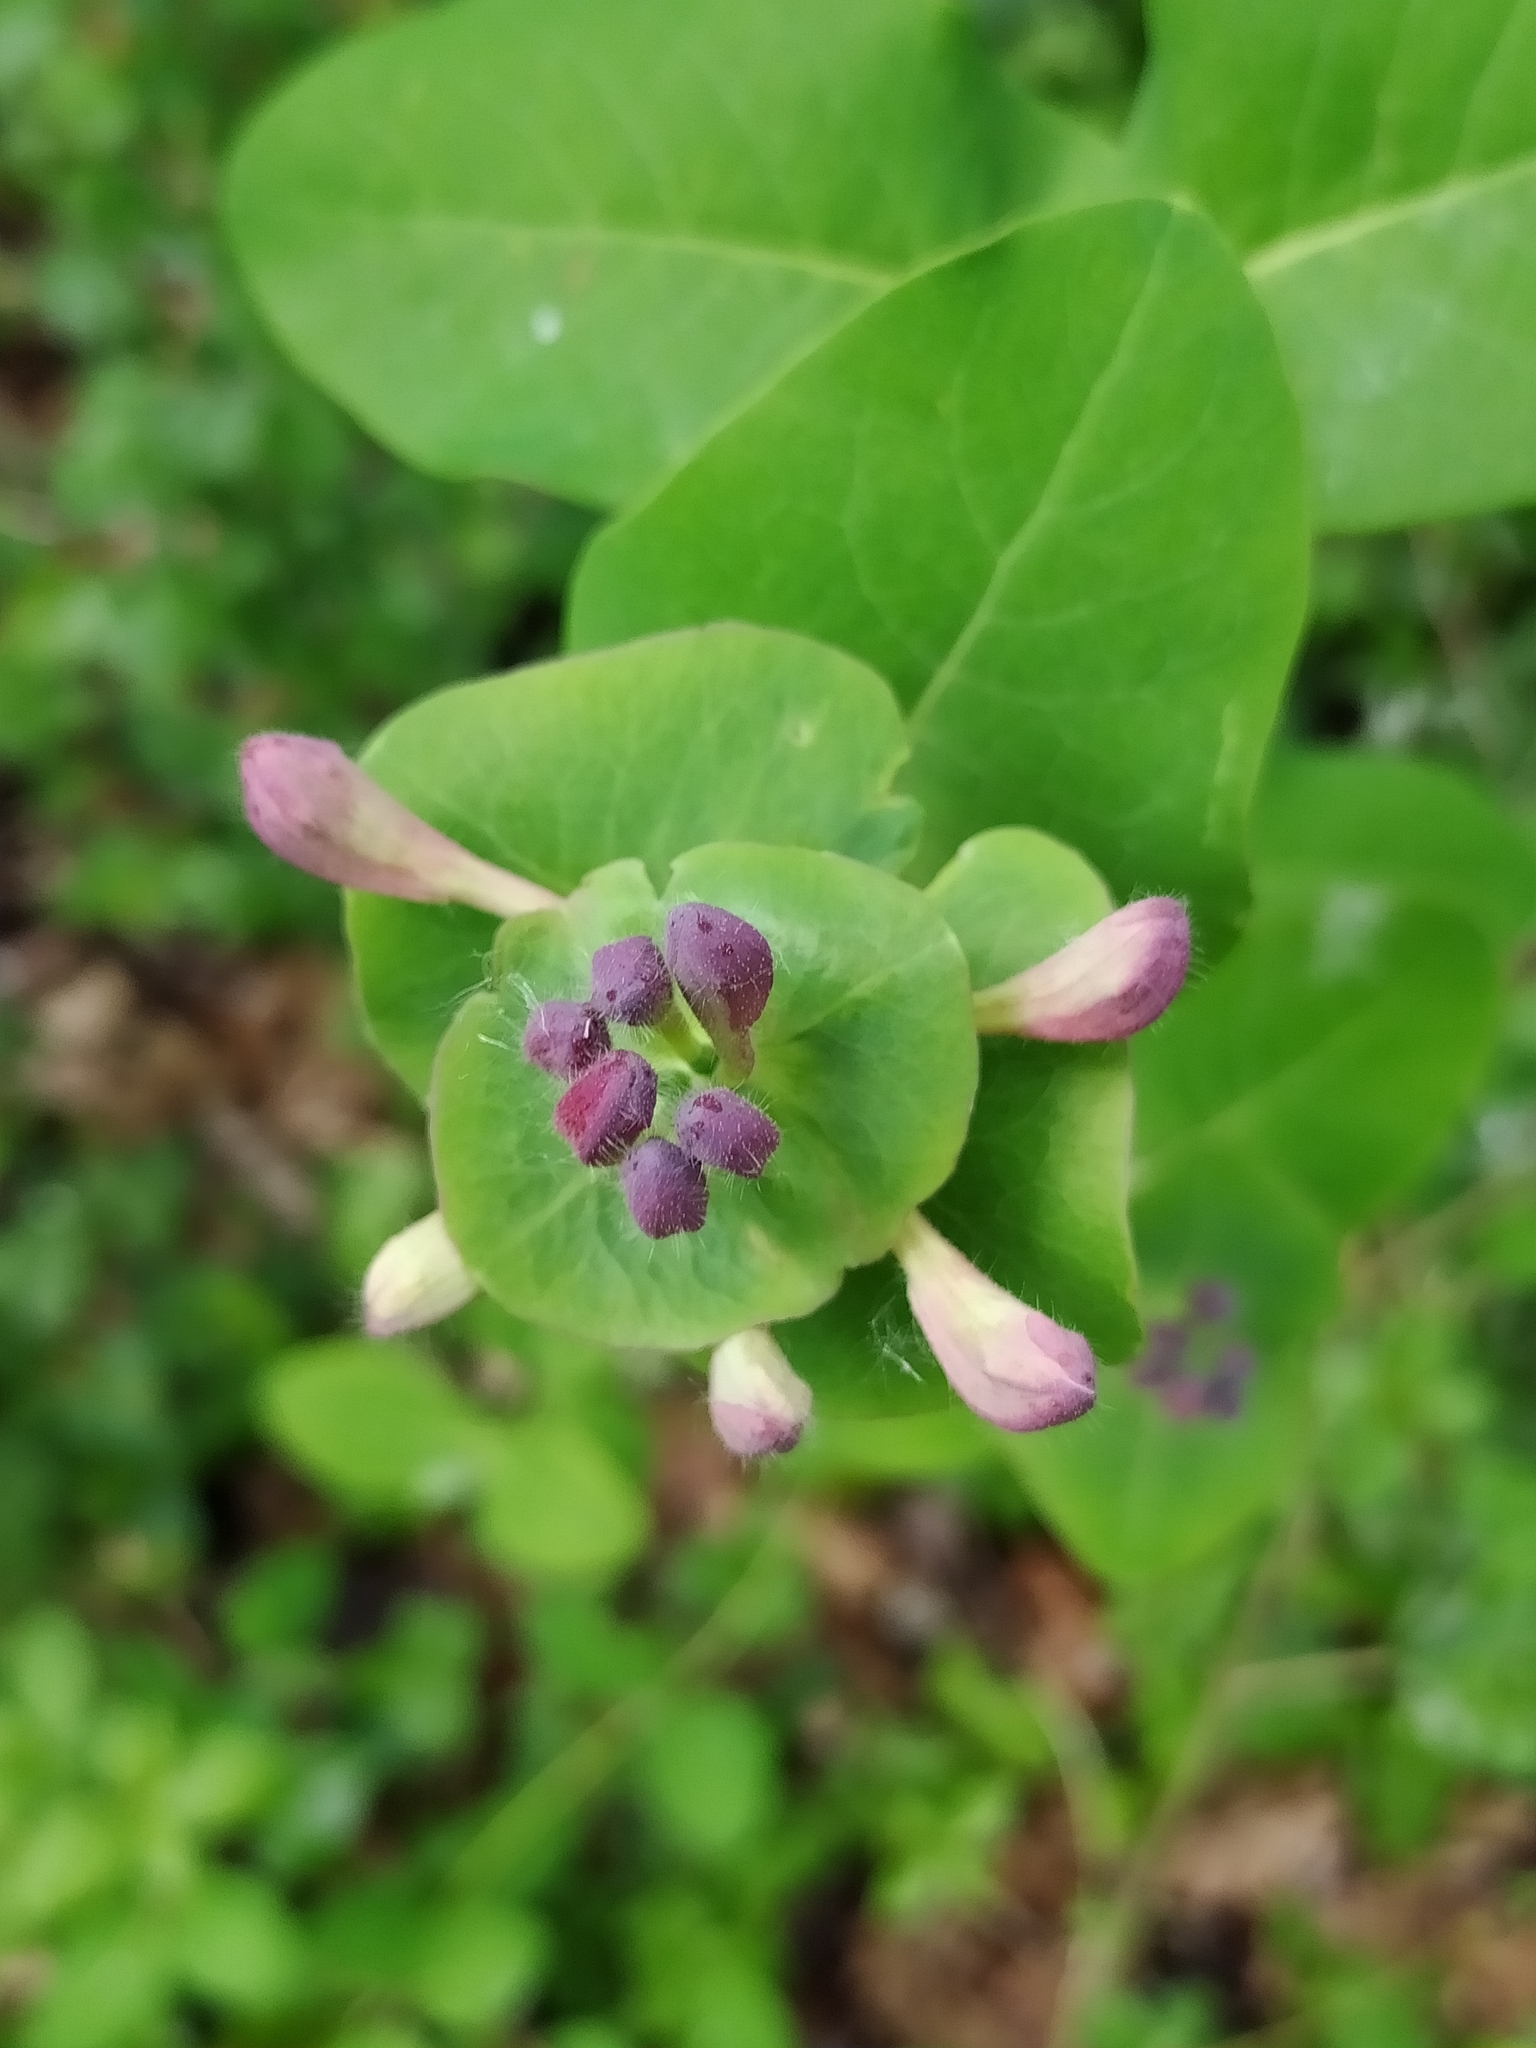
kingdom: Plantae
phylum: Tracheophyta
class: Magnoliopsida
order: Dipsacales
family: Caprifoliaceae
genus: Lonicera
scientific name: Lonicera caprifolium
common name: Perfoliate honeysuckle
